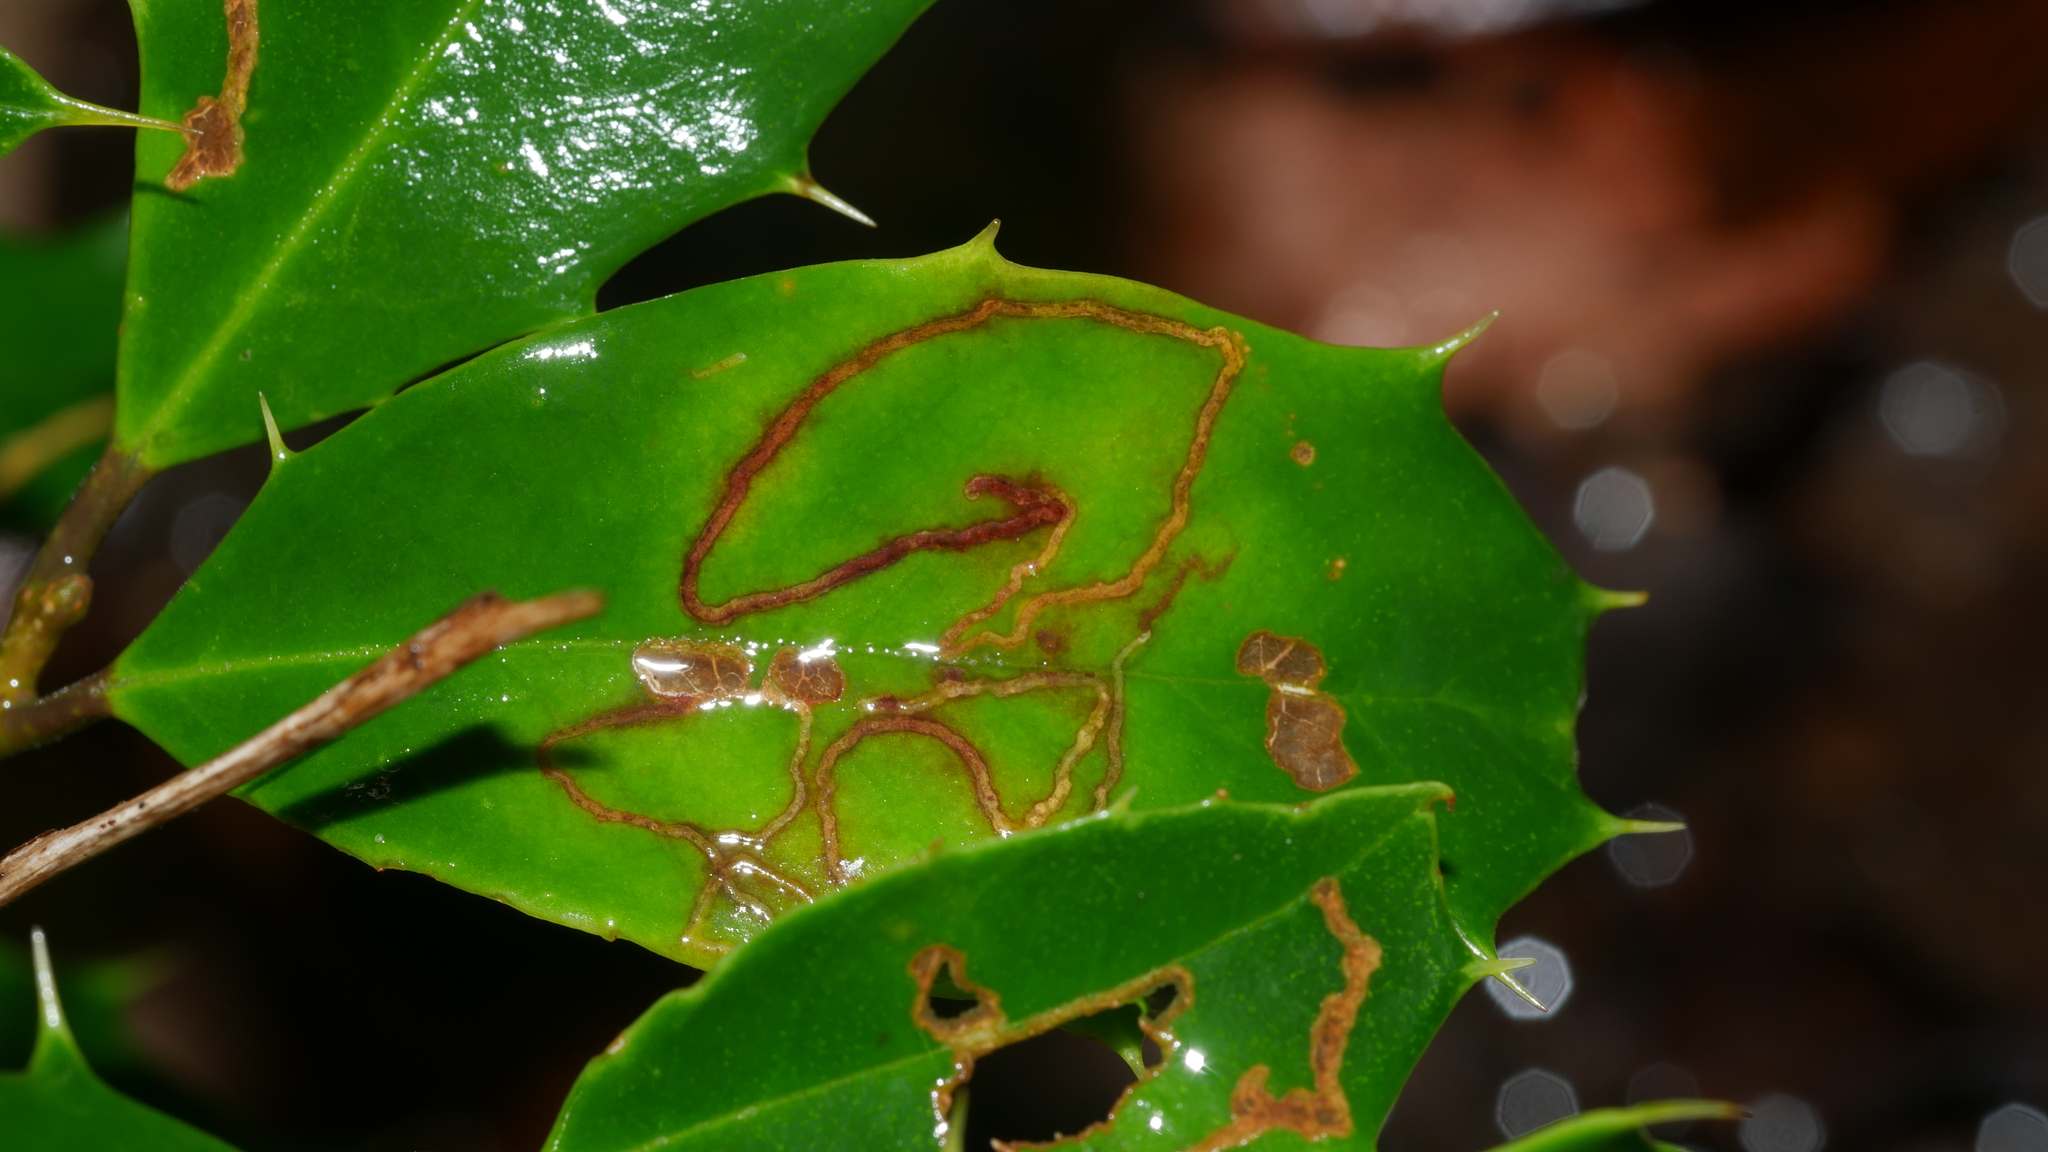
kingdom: Animalia
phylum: Arthropoda
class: Insecta
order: Diptera
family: Agromyzidae
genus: Phytomyza
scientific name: Phytomyza opacae
